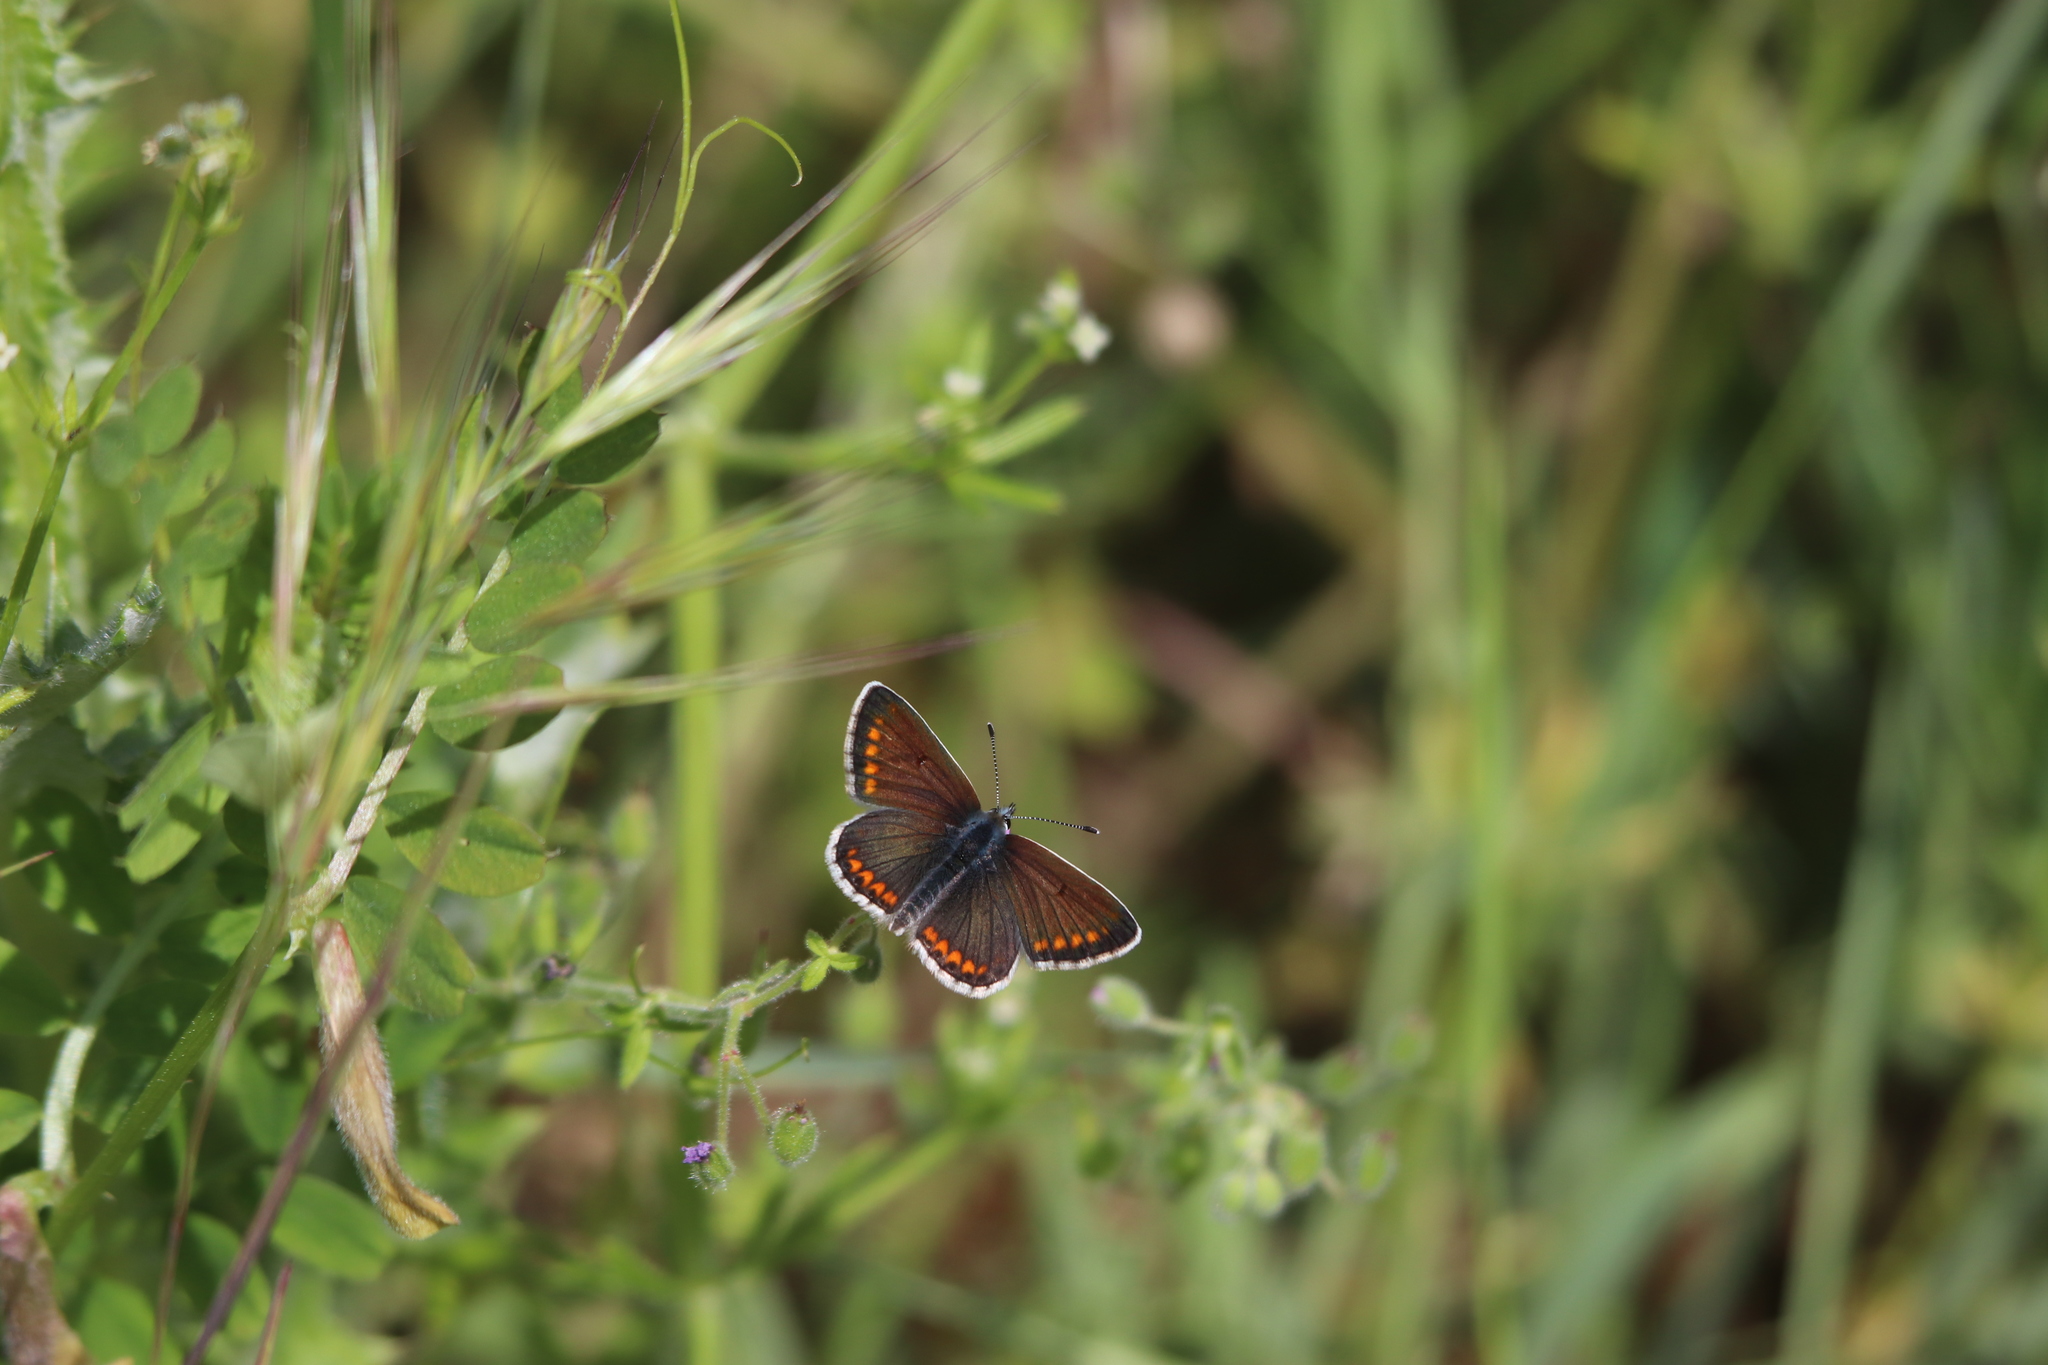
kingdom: Animalia
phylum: Arthropoda
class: Insecta
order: Lepidoptera
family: Lycaenidae
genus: Aricia
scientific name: Aricia agestis
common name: Brown argus
